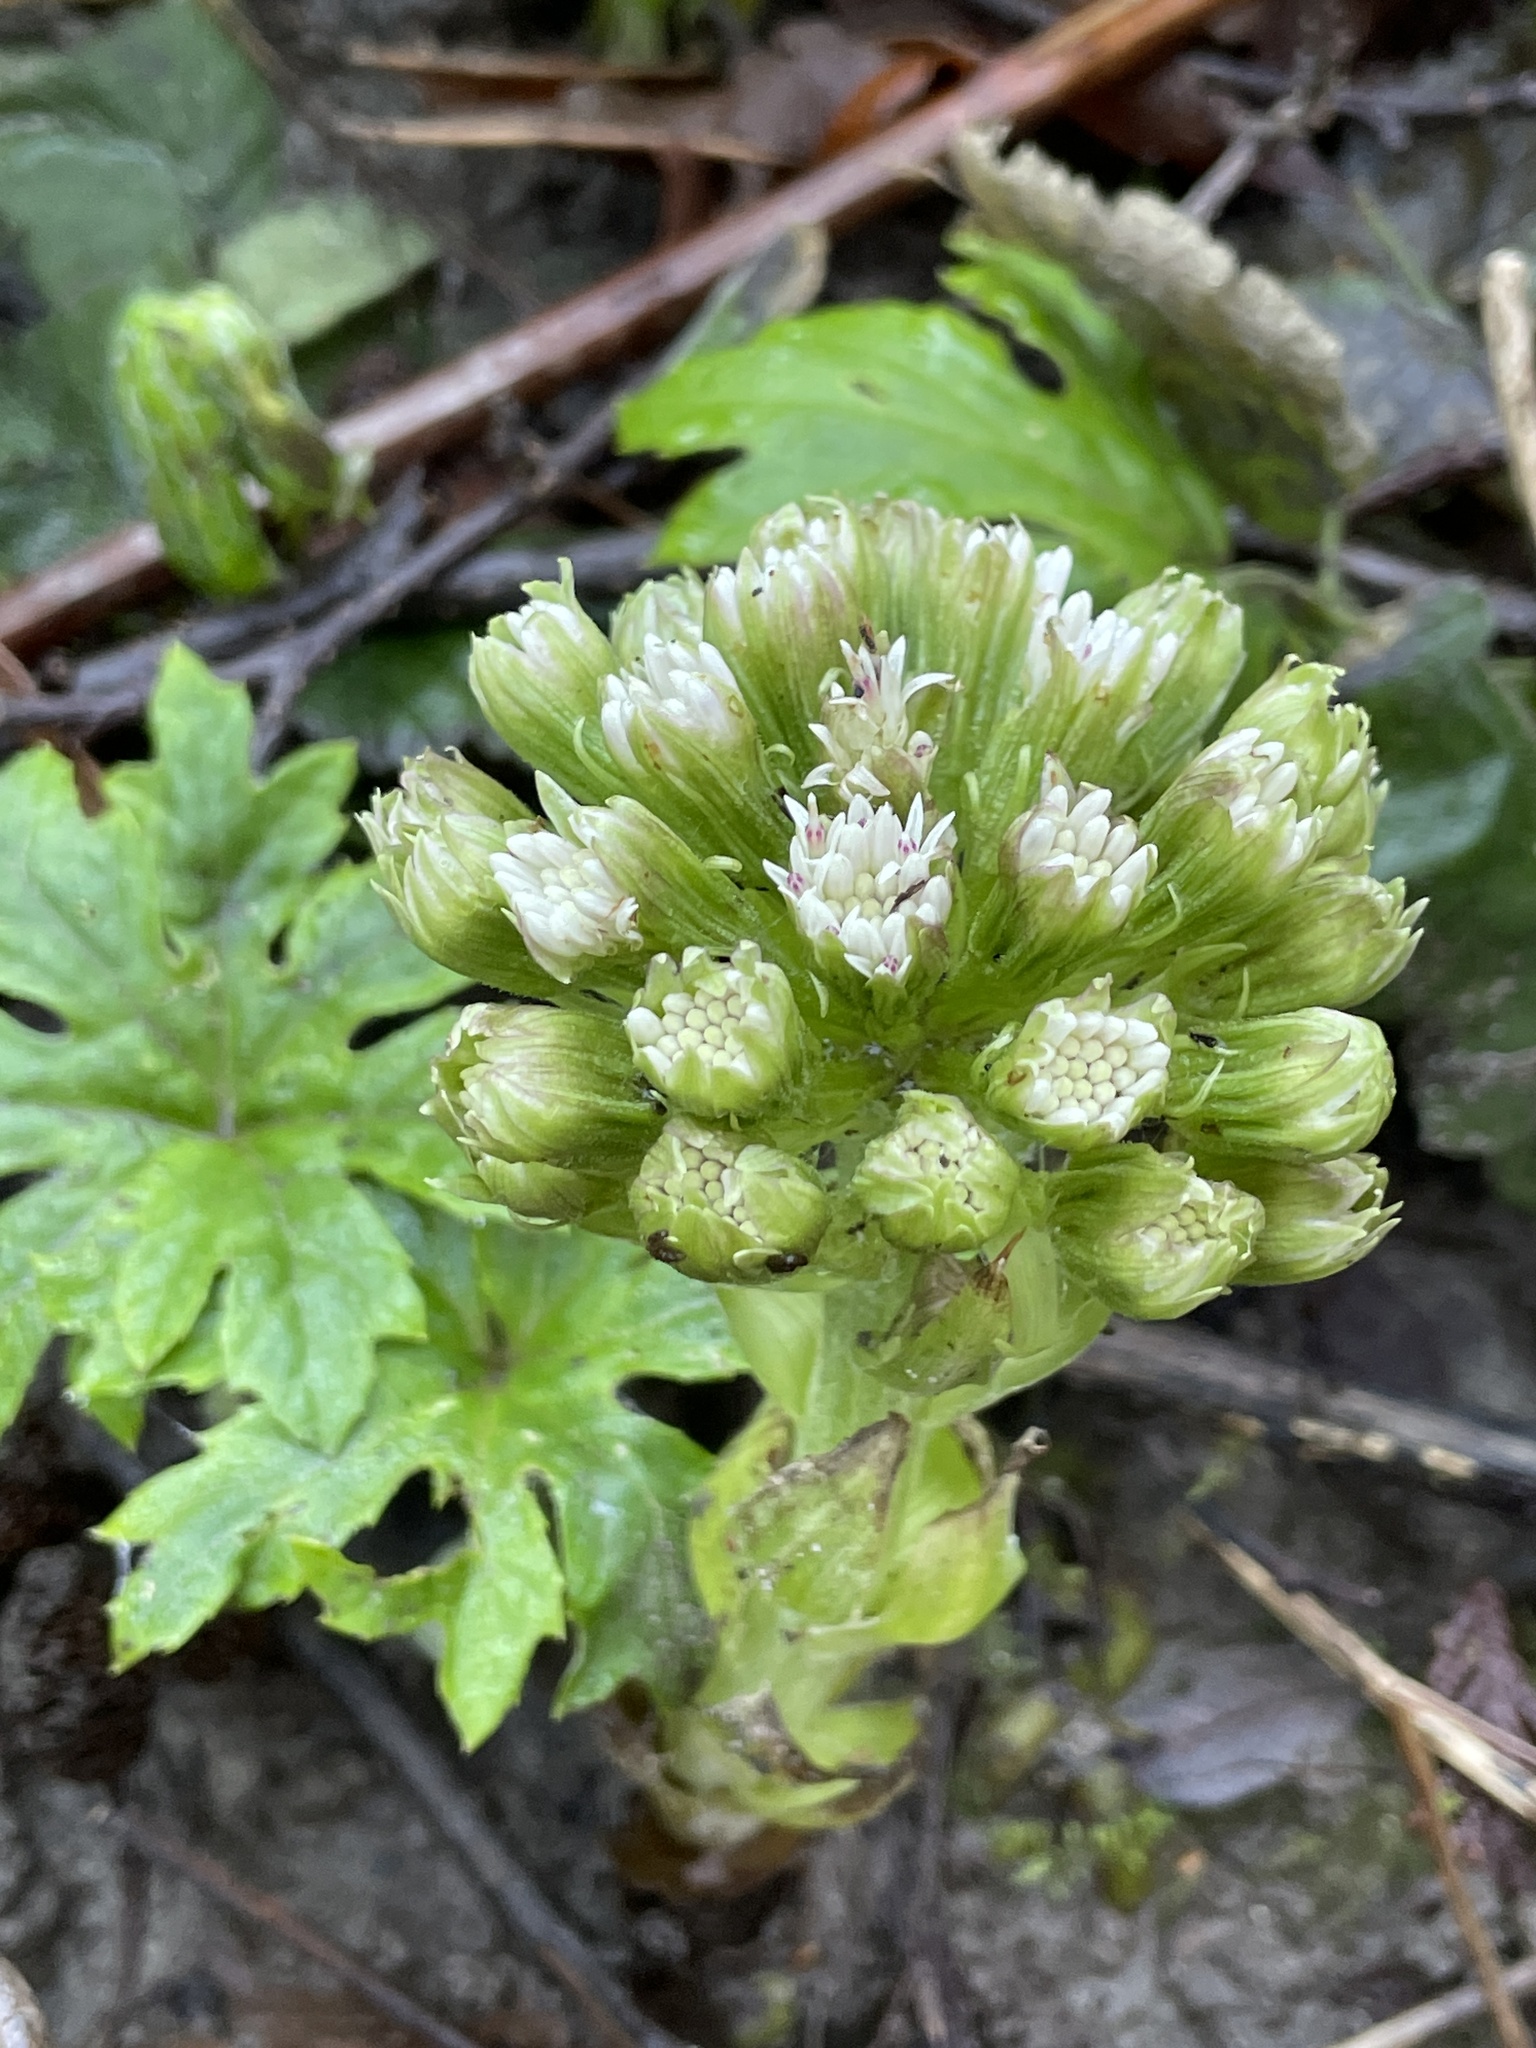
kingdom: Plantae
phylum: Tracheophyta
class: Magnoliopsida
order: Asterales
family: Asteraceae
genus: Petasites
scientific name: Petasites frigidus
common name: Arctic butterbur
